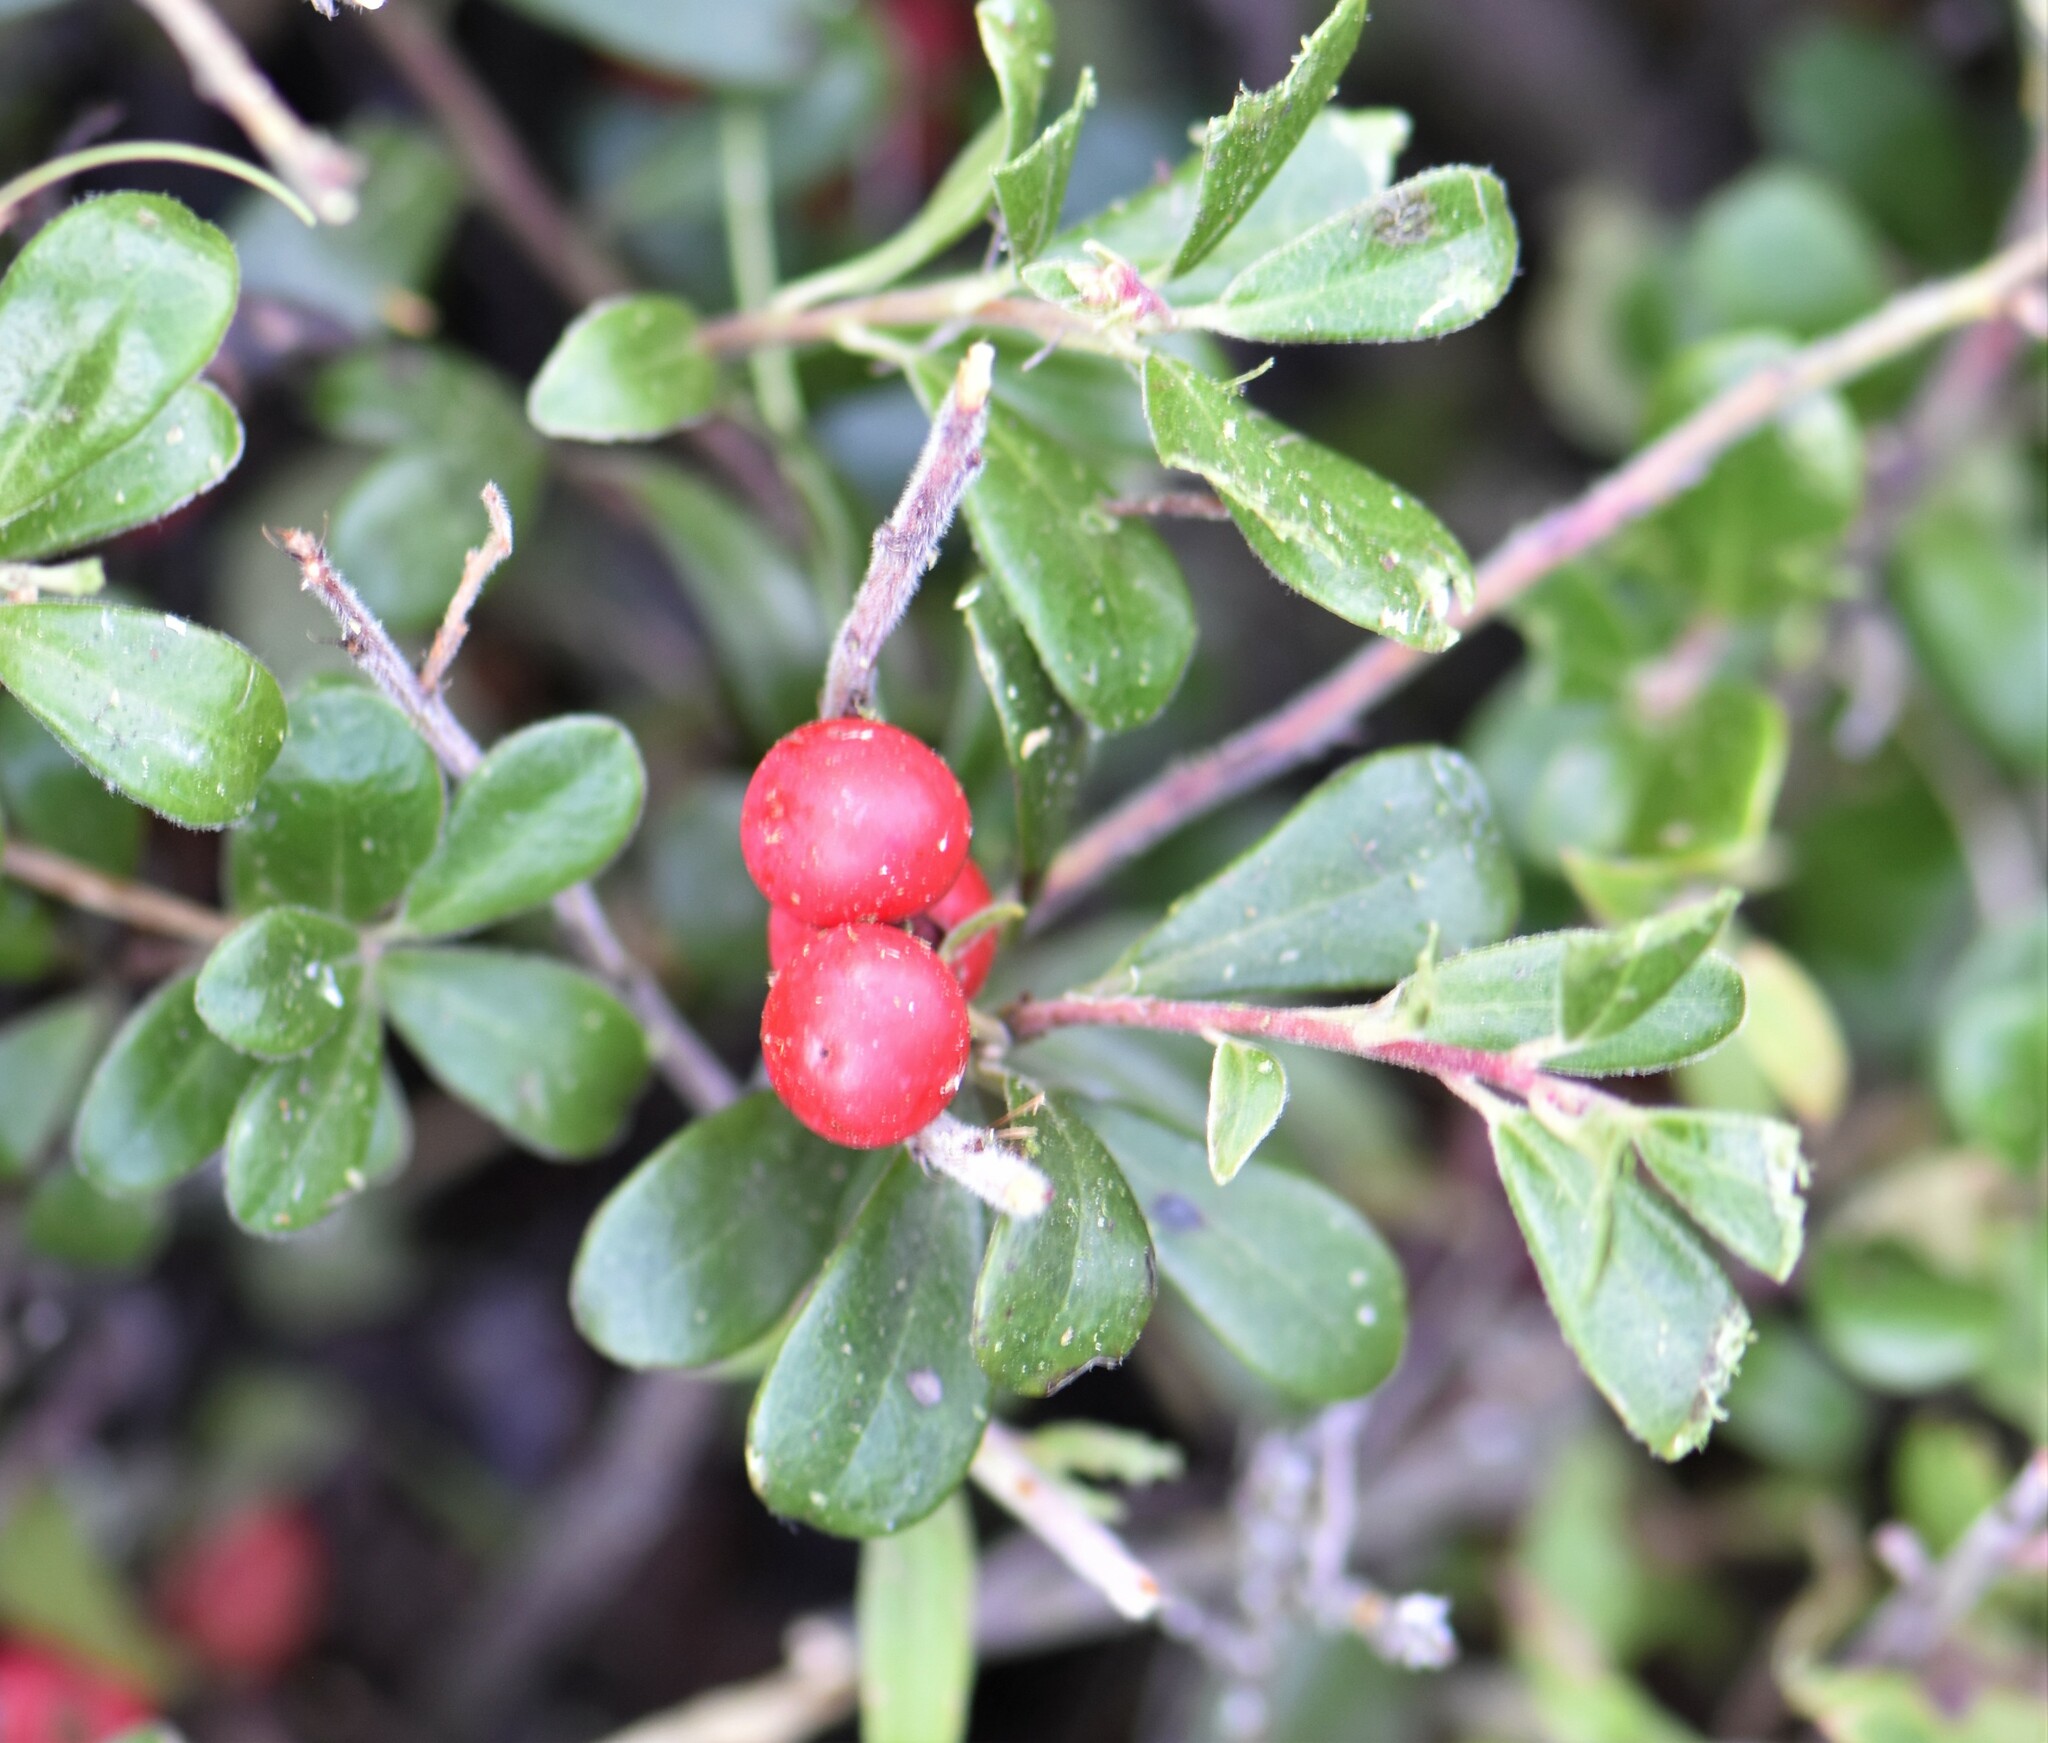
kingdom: Plantae
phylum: Tracheophyta
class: Magnoliopsida
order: Ericales
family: Ericaceae
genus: Arctostaphylos
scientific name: Arctostaphylos uva-ursi
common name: Bearberry
